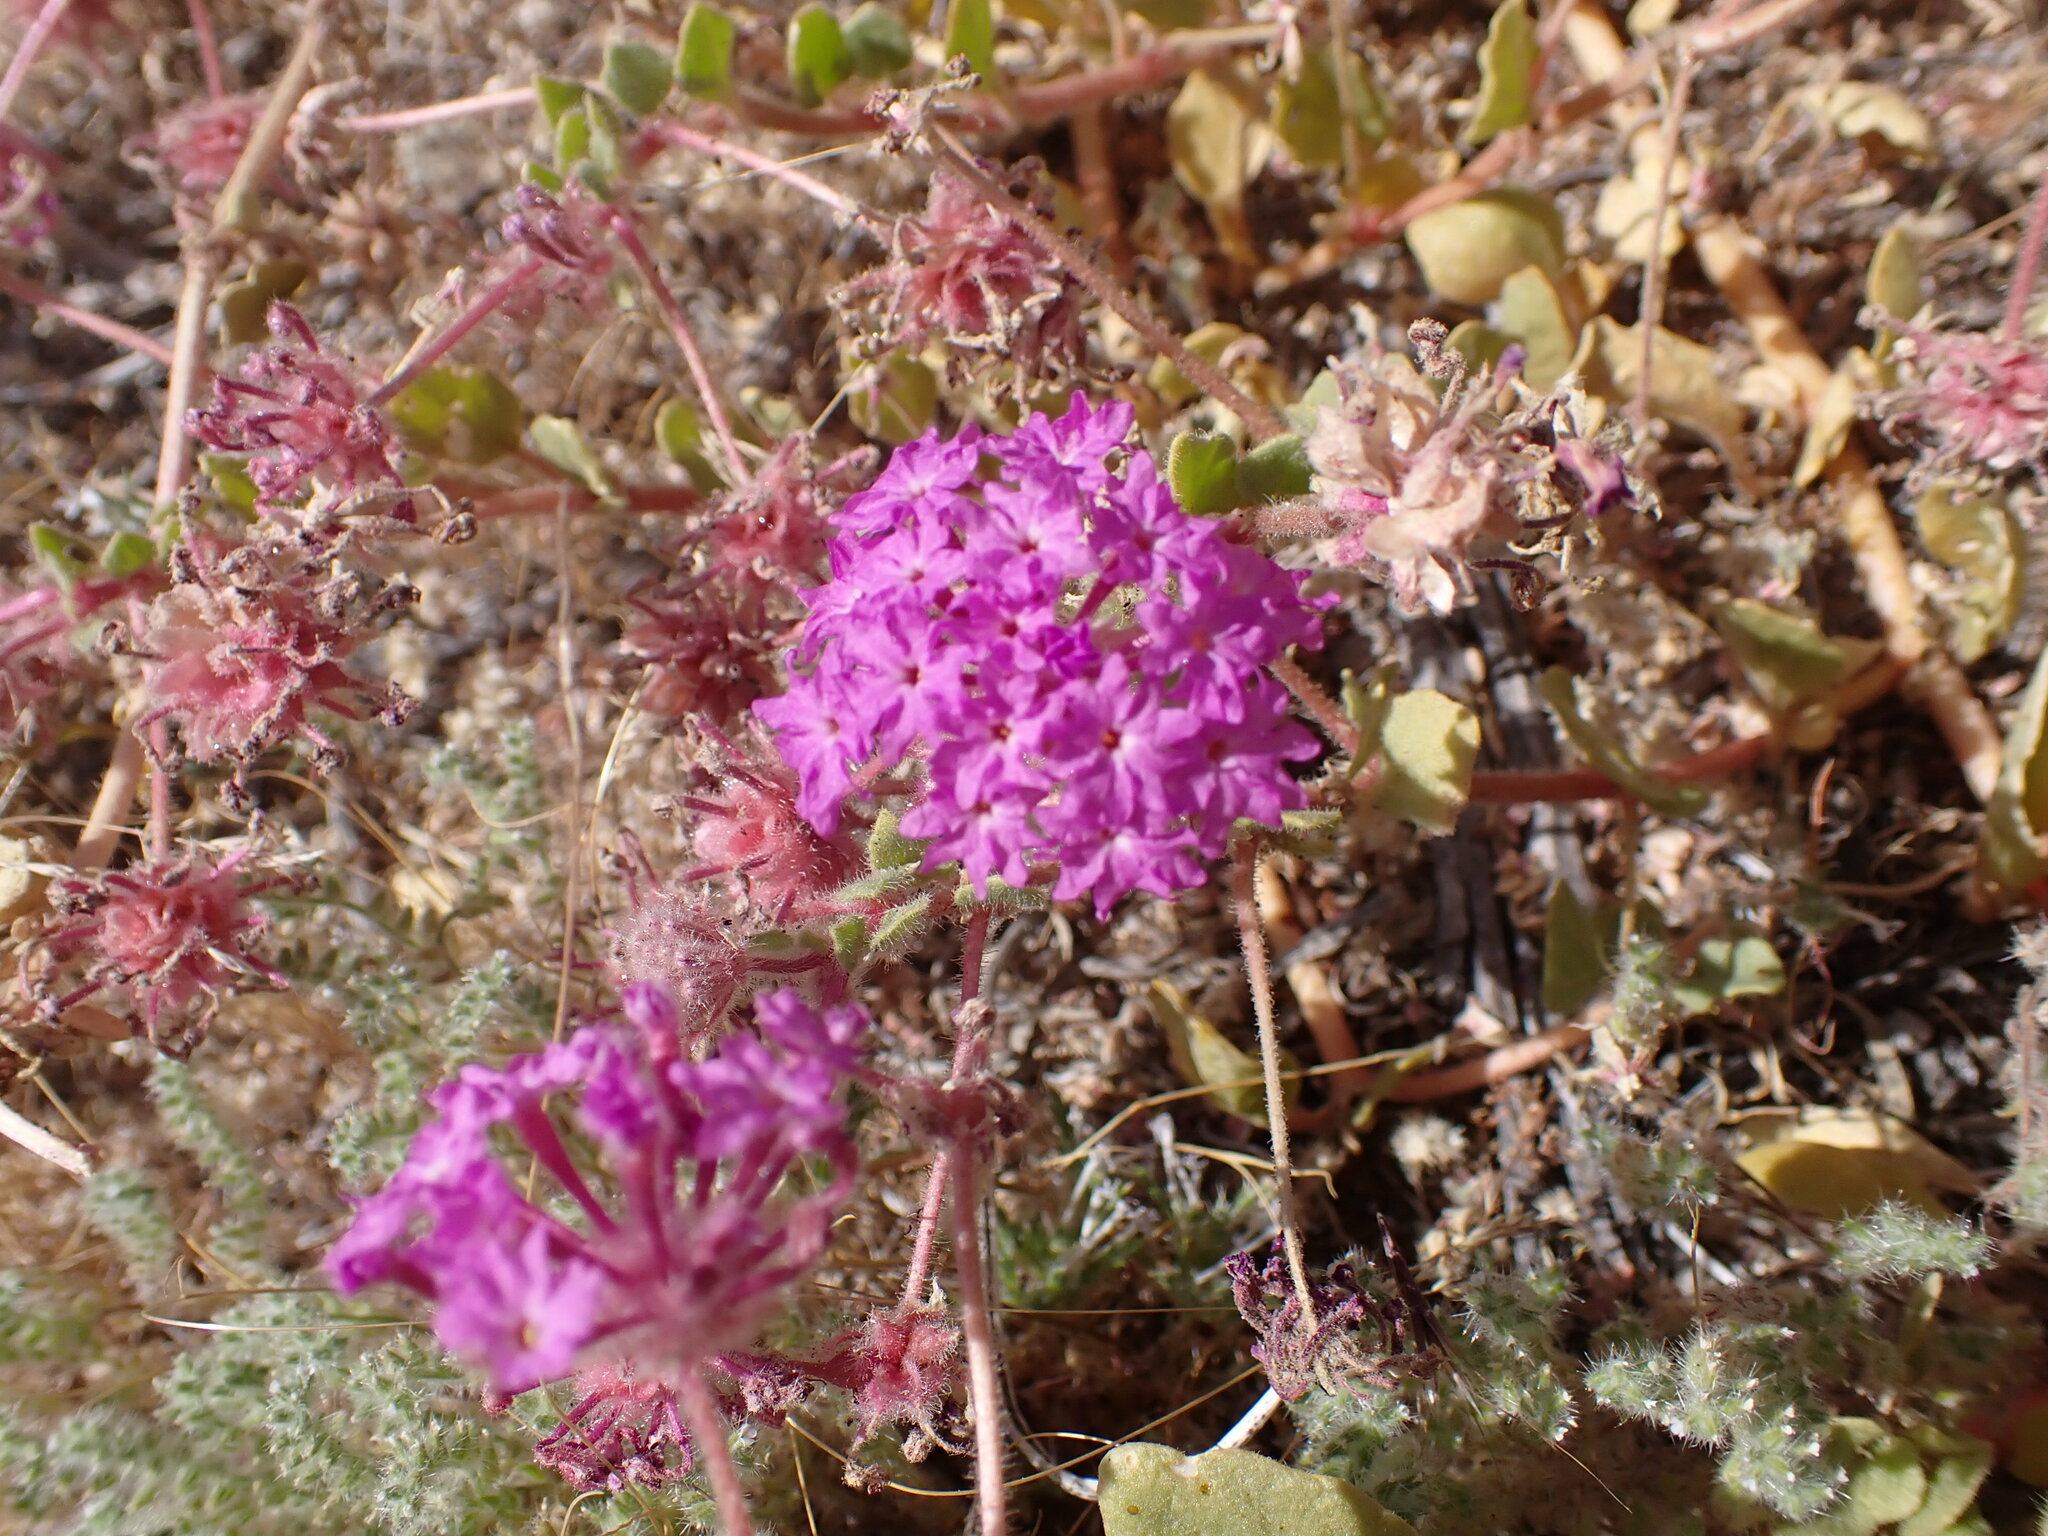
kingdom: Plantae
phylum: Tracheophyta
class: Magnoliopsida
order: Caryophyllales
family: Nyctaginaceae
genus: Abronia
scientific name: Abronia villosa
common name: Desert sand-verbena
